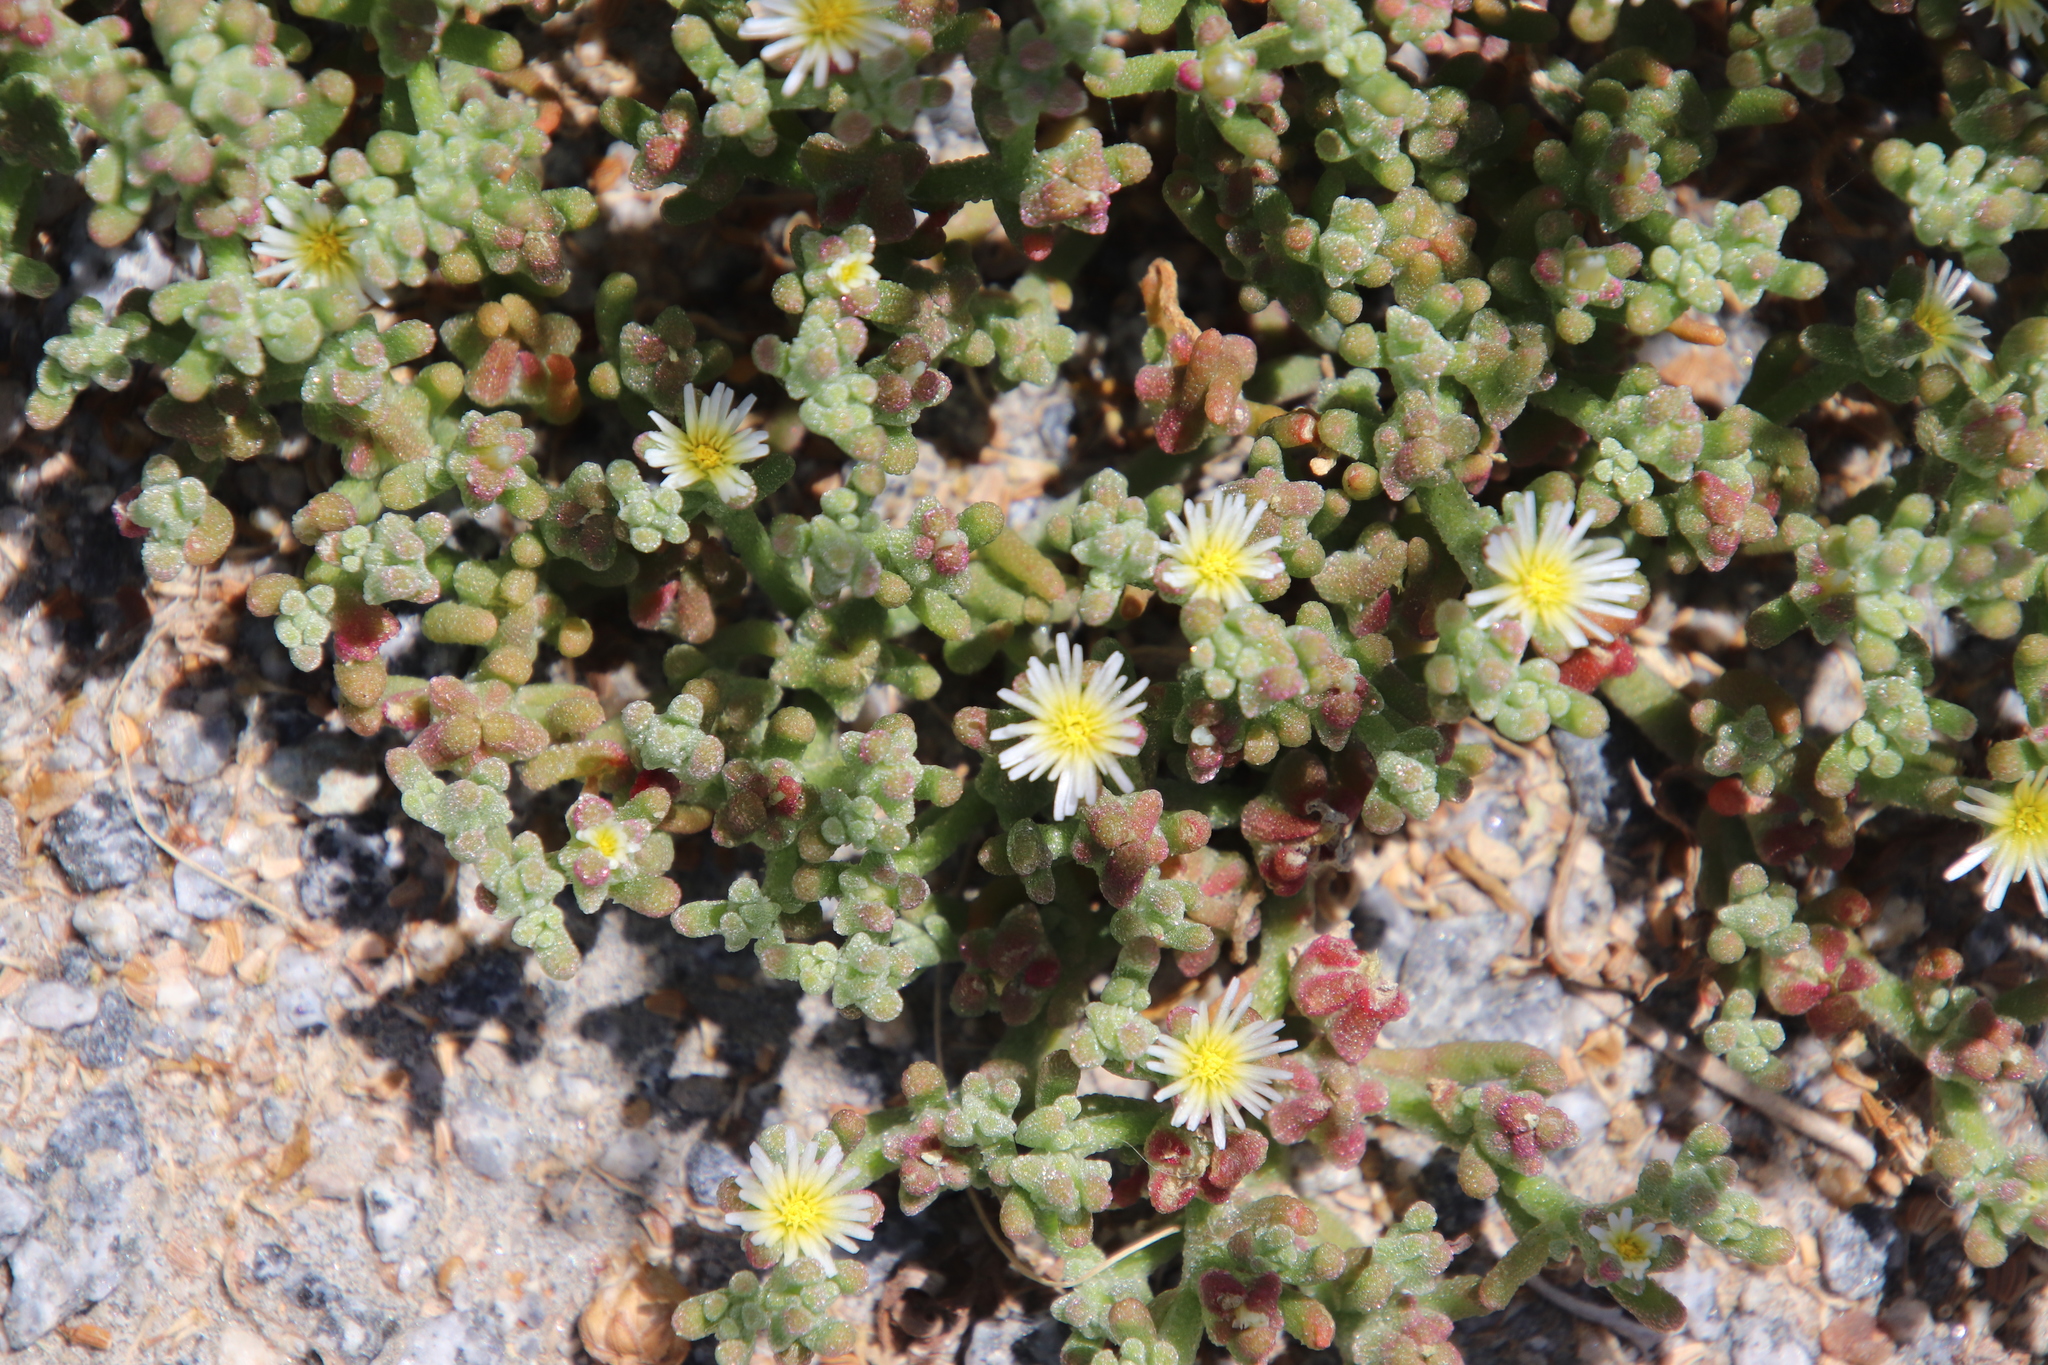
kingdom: Plantae
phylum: Tracheophyta
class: Magnoliopsida
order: Caryophyllales
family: Aizoaceae
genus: Mesembryanthemum
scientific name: Mesembryanthemum nodiflorum
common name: Slenderleaf iceplant
